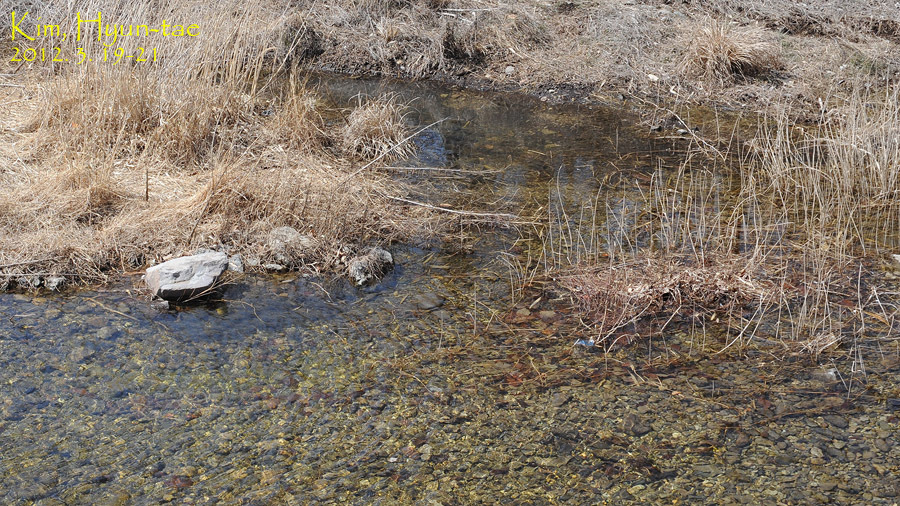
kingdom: Animalia
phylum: Chordata
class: Amphibia
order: Anura
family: Ranidae
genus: Rana
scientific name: Rana huanrenensis
